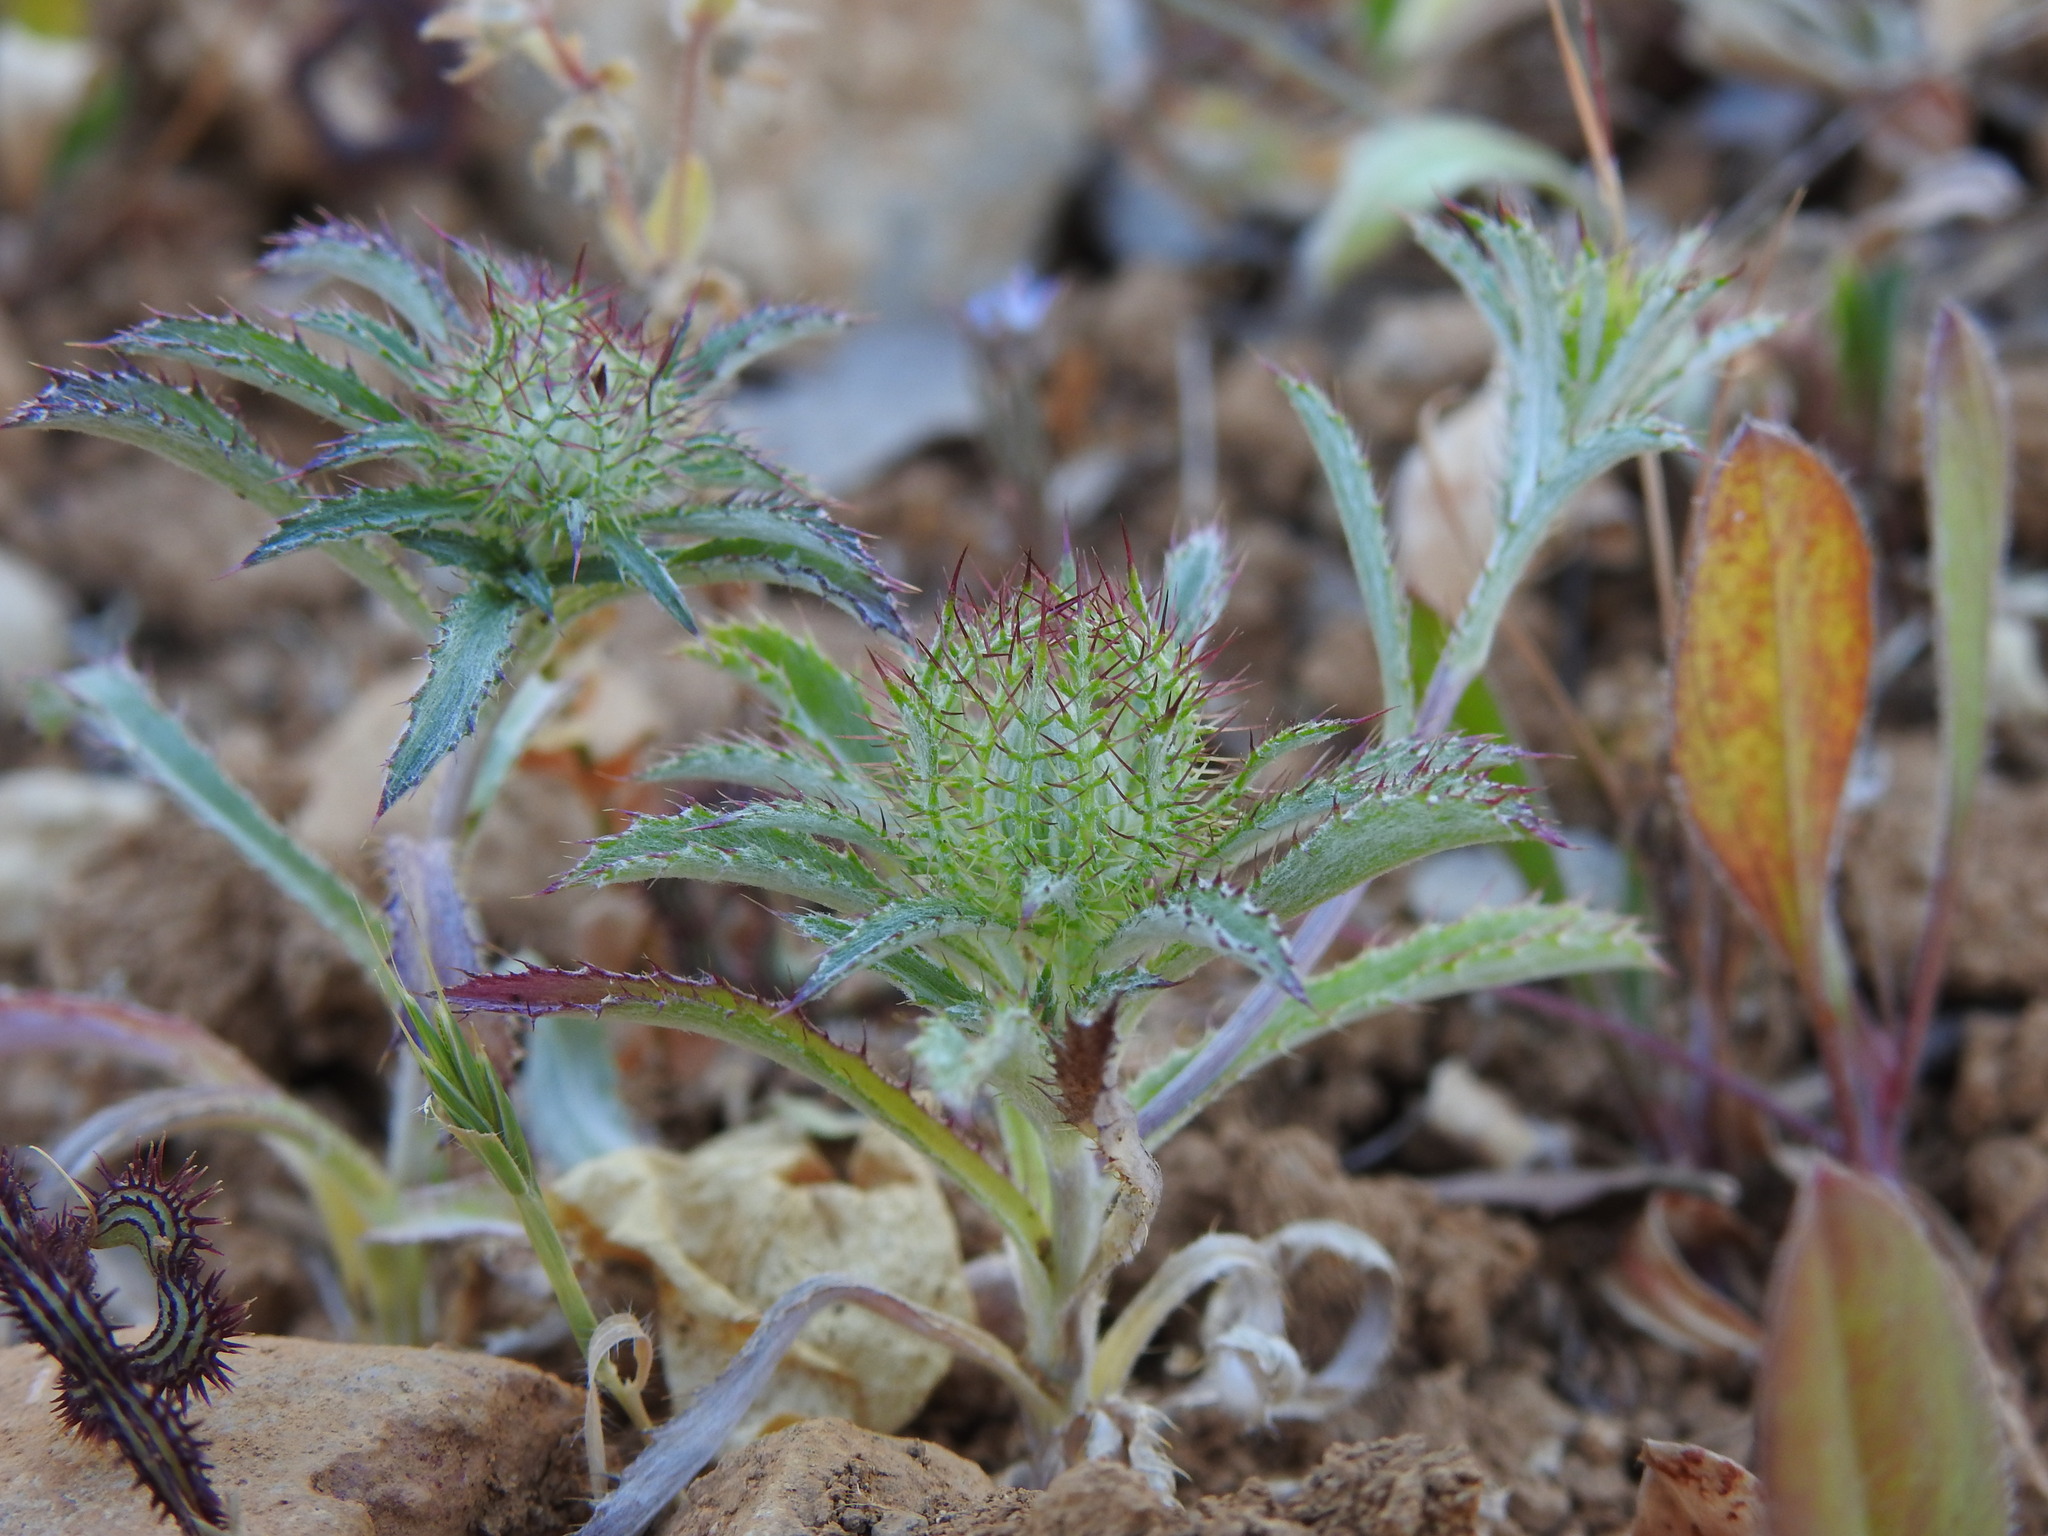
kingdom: Plantae
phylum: Tracheophyta
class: Magnoliopsida
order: Asterales
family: Asteraceae
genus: Atractylis
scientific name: Atractylis cancellata
